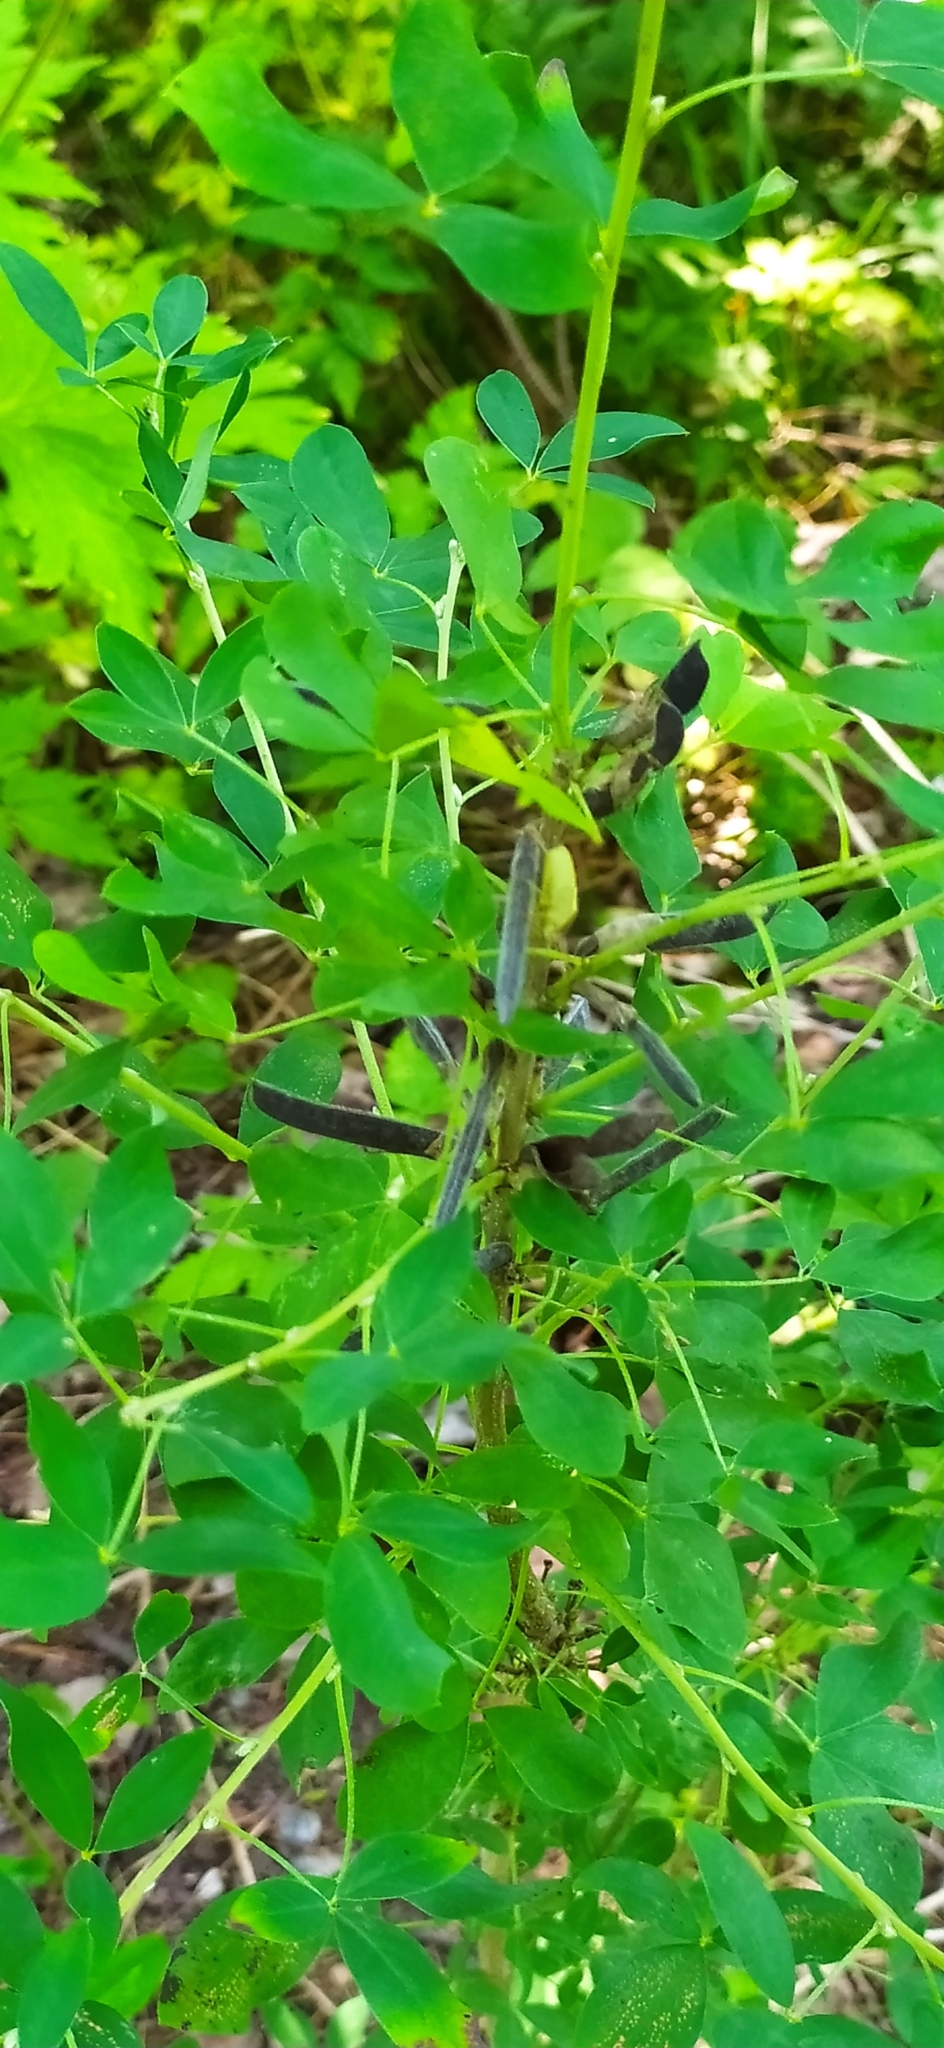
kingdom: Plantae
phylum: Tracheophyta
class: Magnoliopsida
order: Fabales
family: Fabaceae
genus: Chamaecytisus
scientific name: Chamaecytisus ruthenicus
